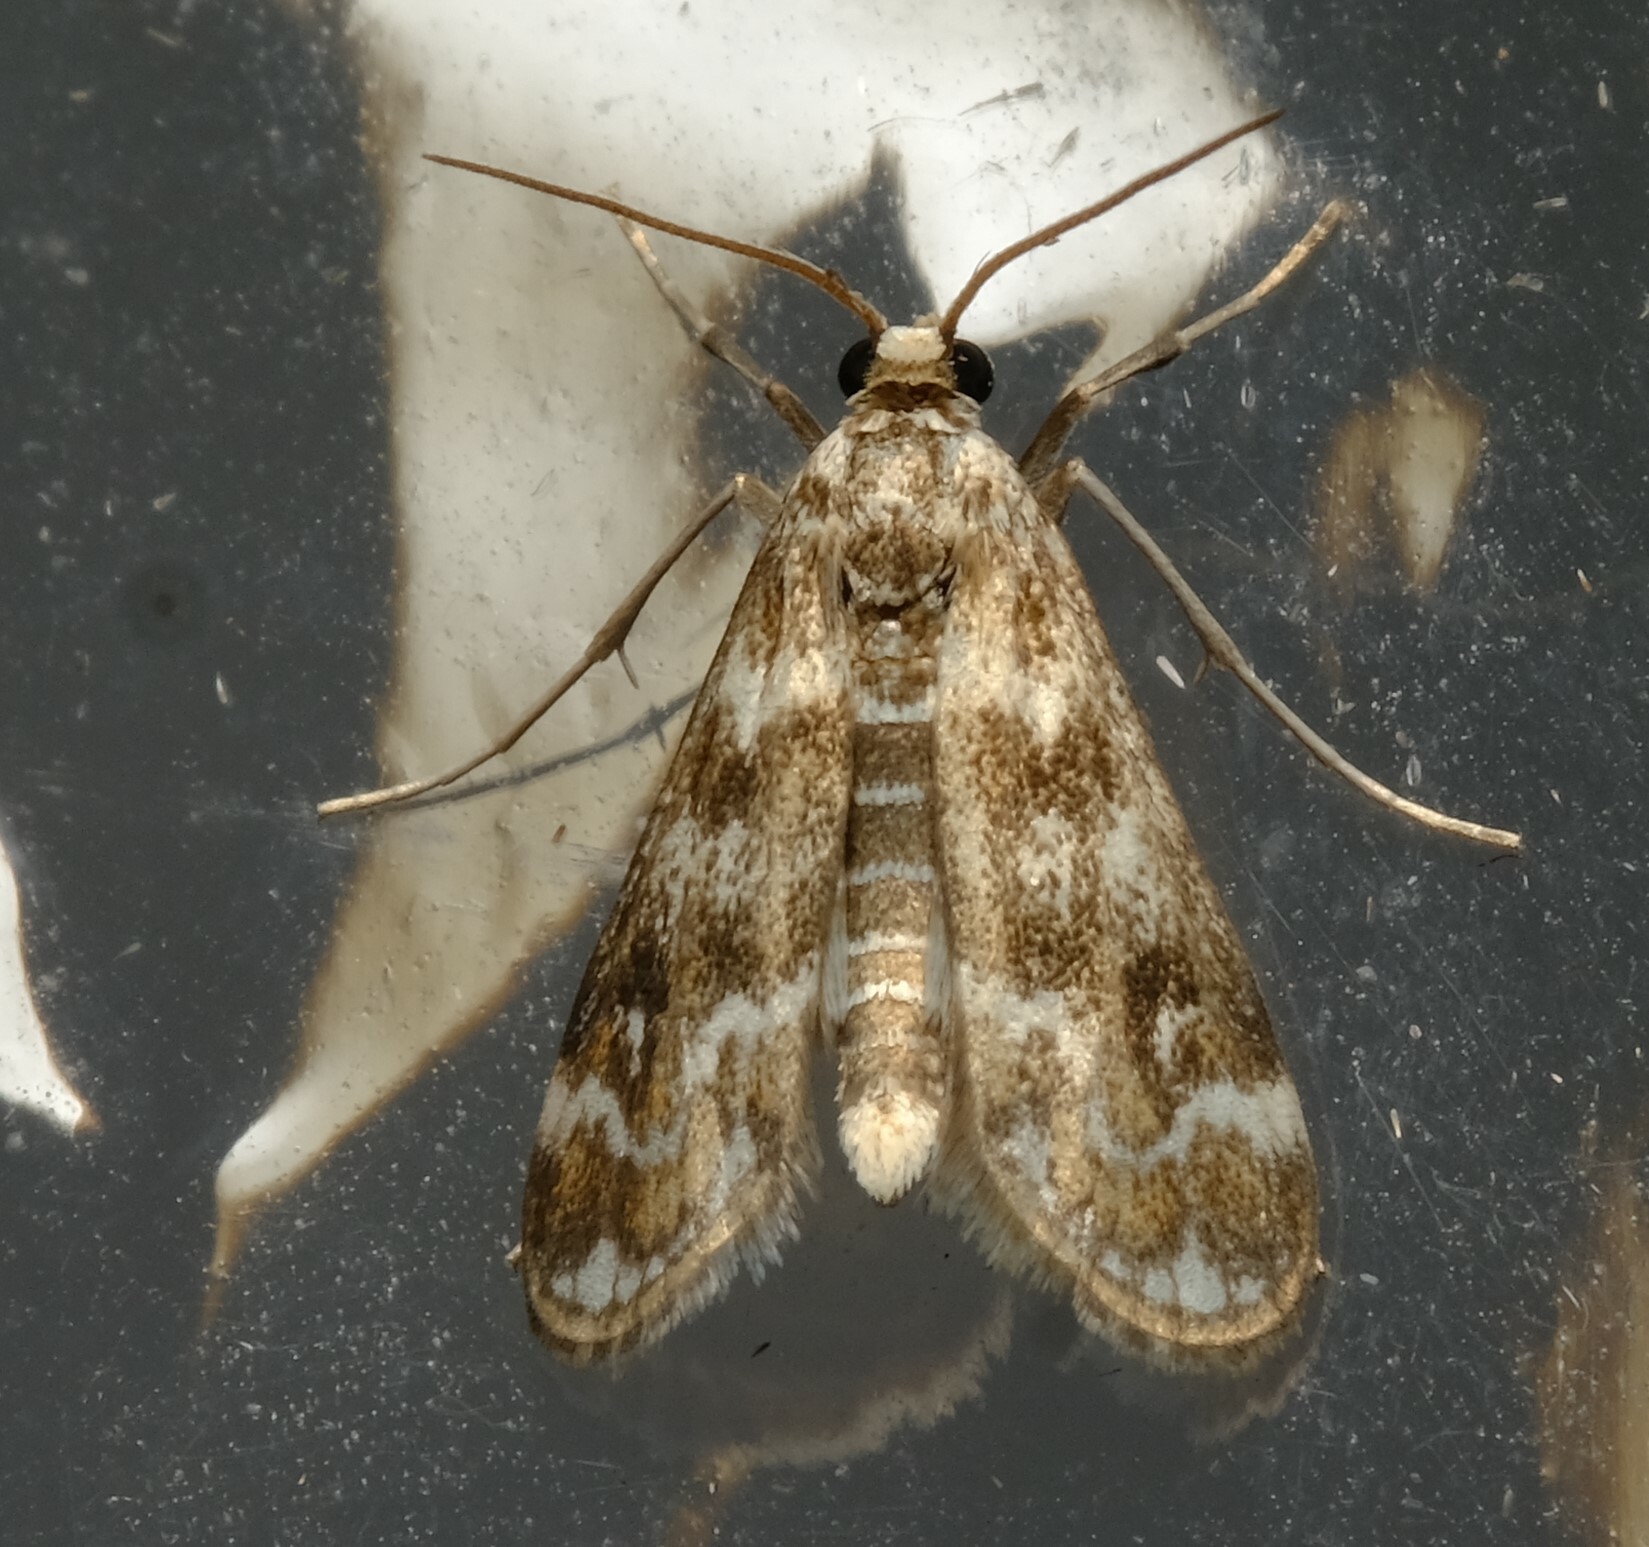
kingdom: Animalia
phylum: Arthropoda
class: Insecta
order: Lepidoptera
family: Crambidae
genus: Hygraula
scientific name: Hygraula nitens
